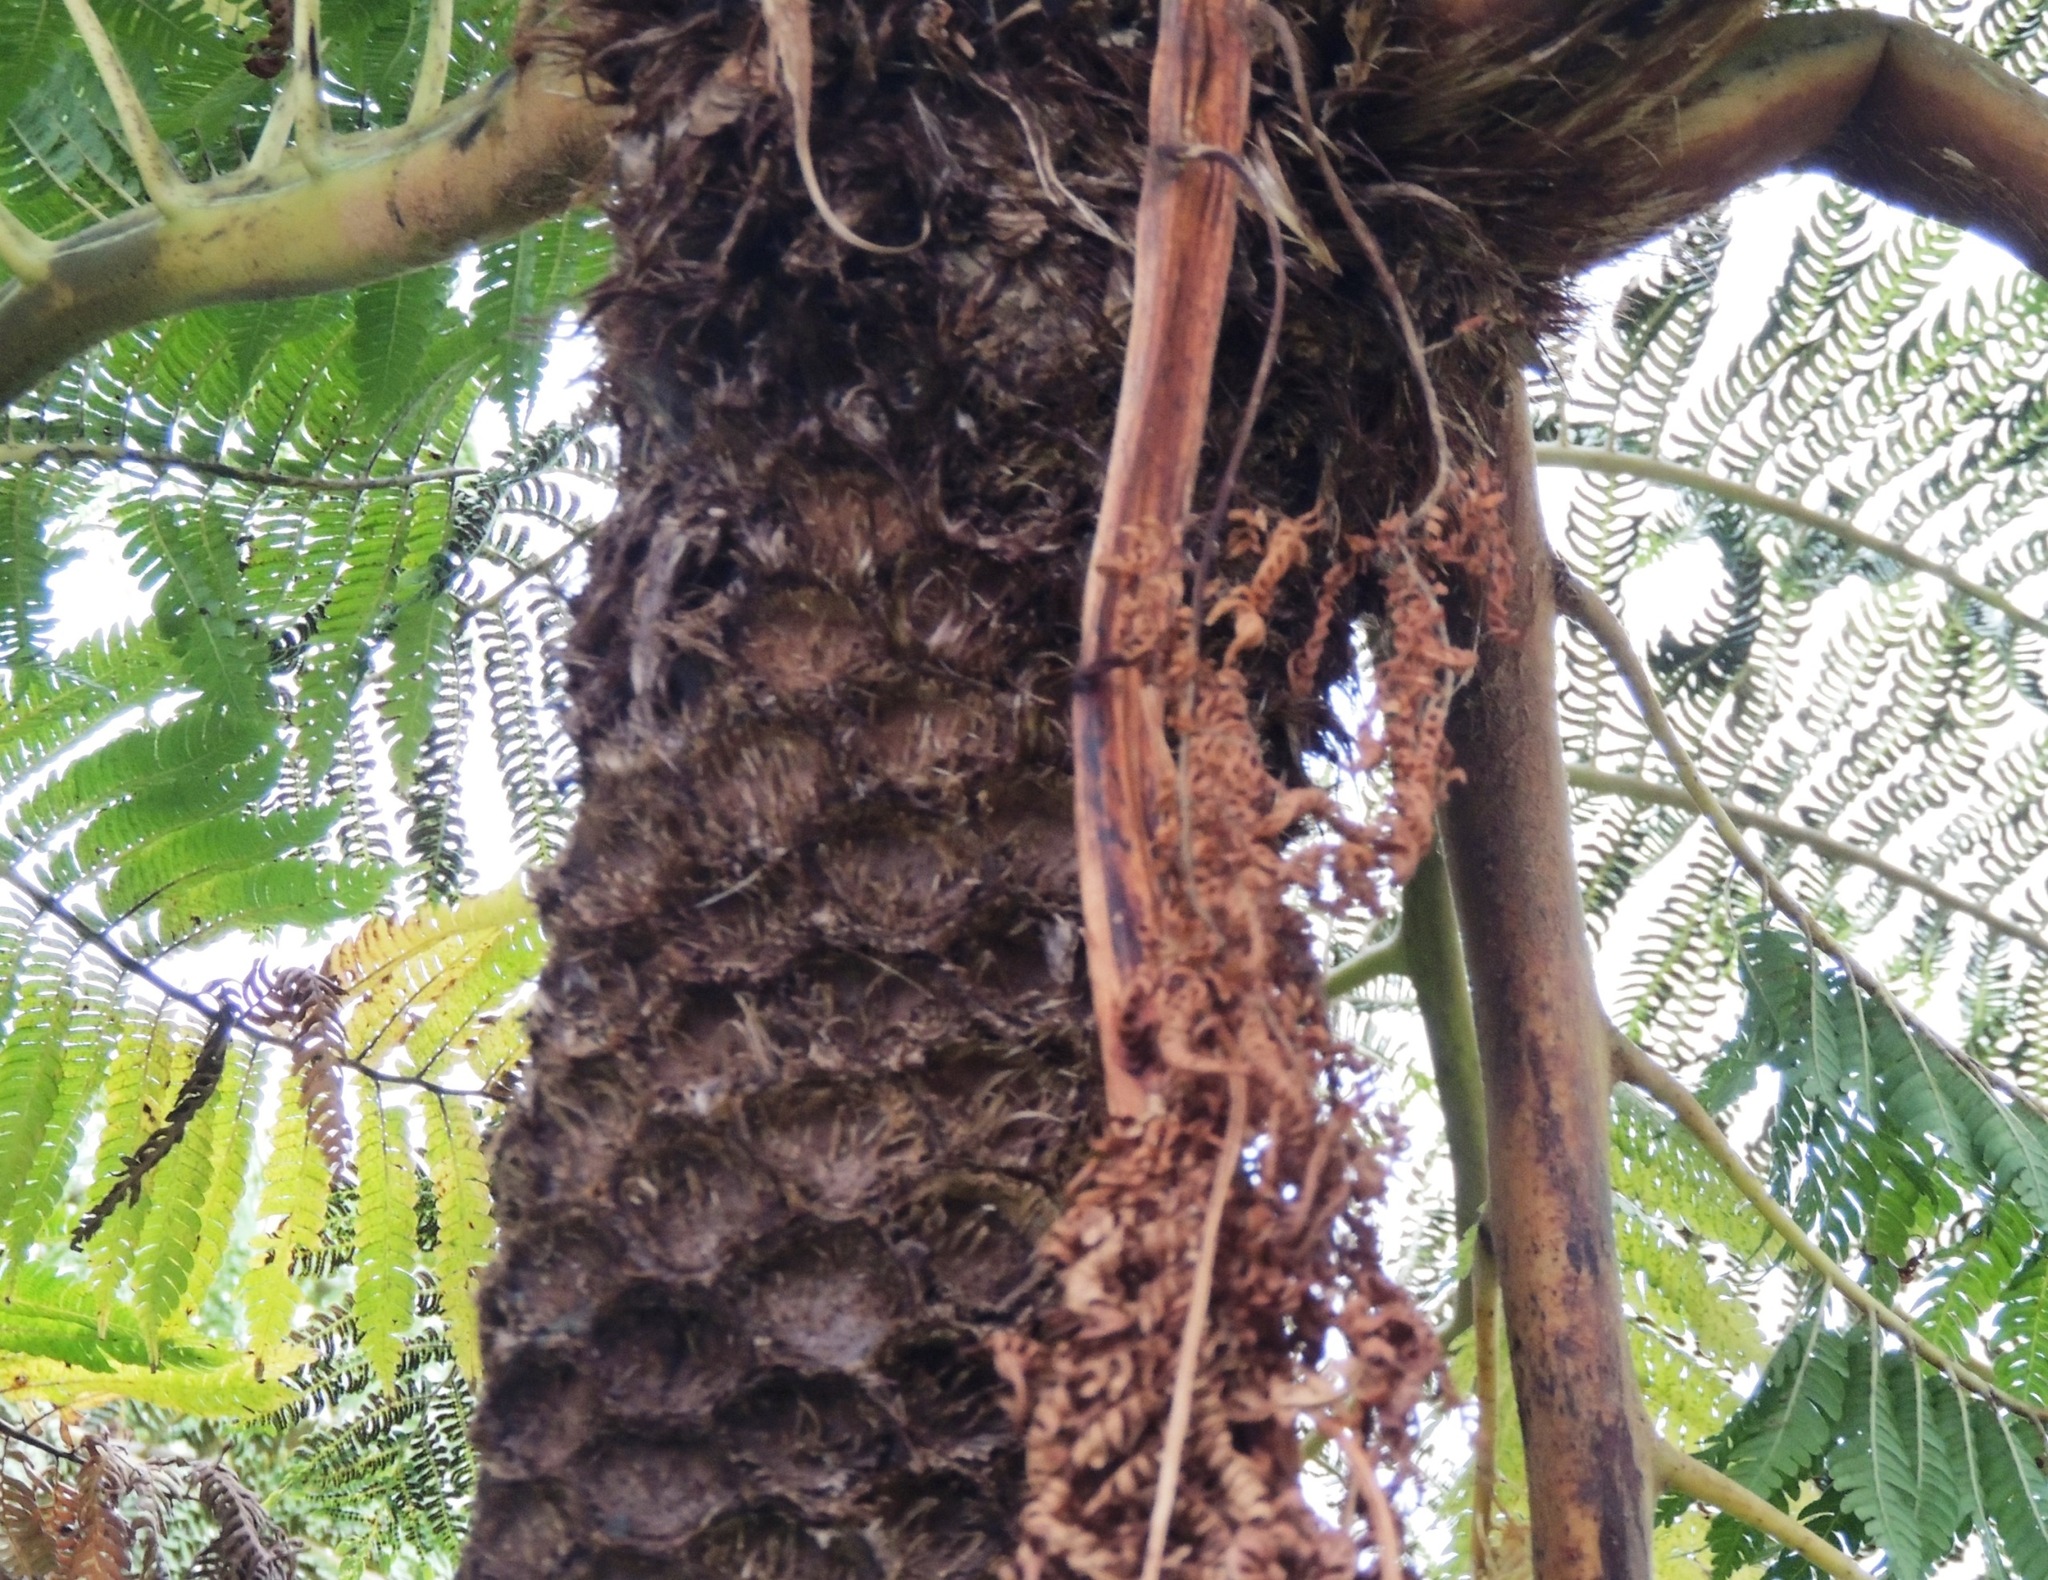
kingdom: Plantae
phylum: Tracheophyta
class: Polypodiopsida
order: Cyatheales
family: Cyatheaceae
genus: Sphaeropteris
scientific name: Sphaeropteris excelsa
